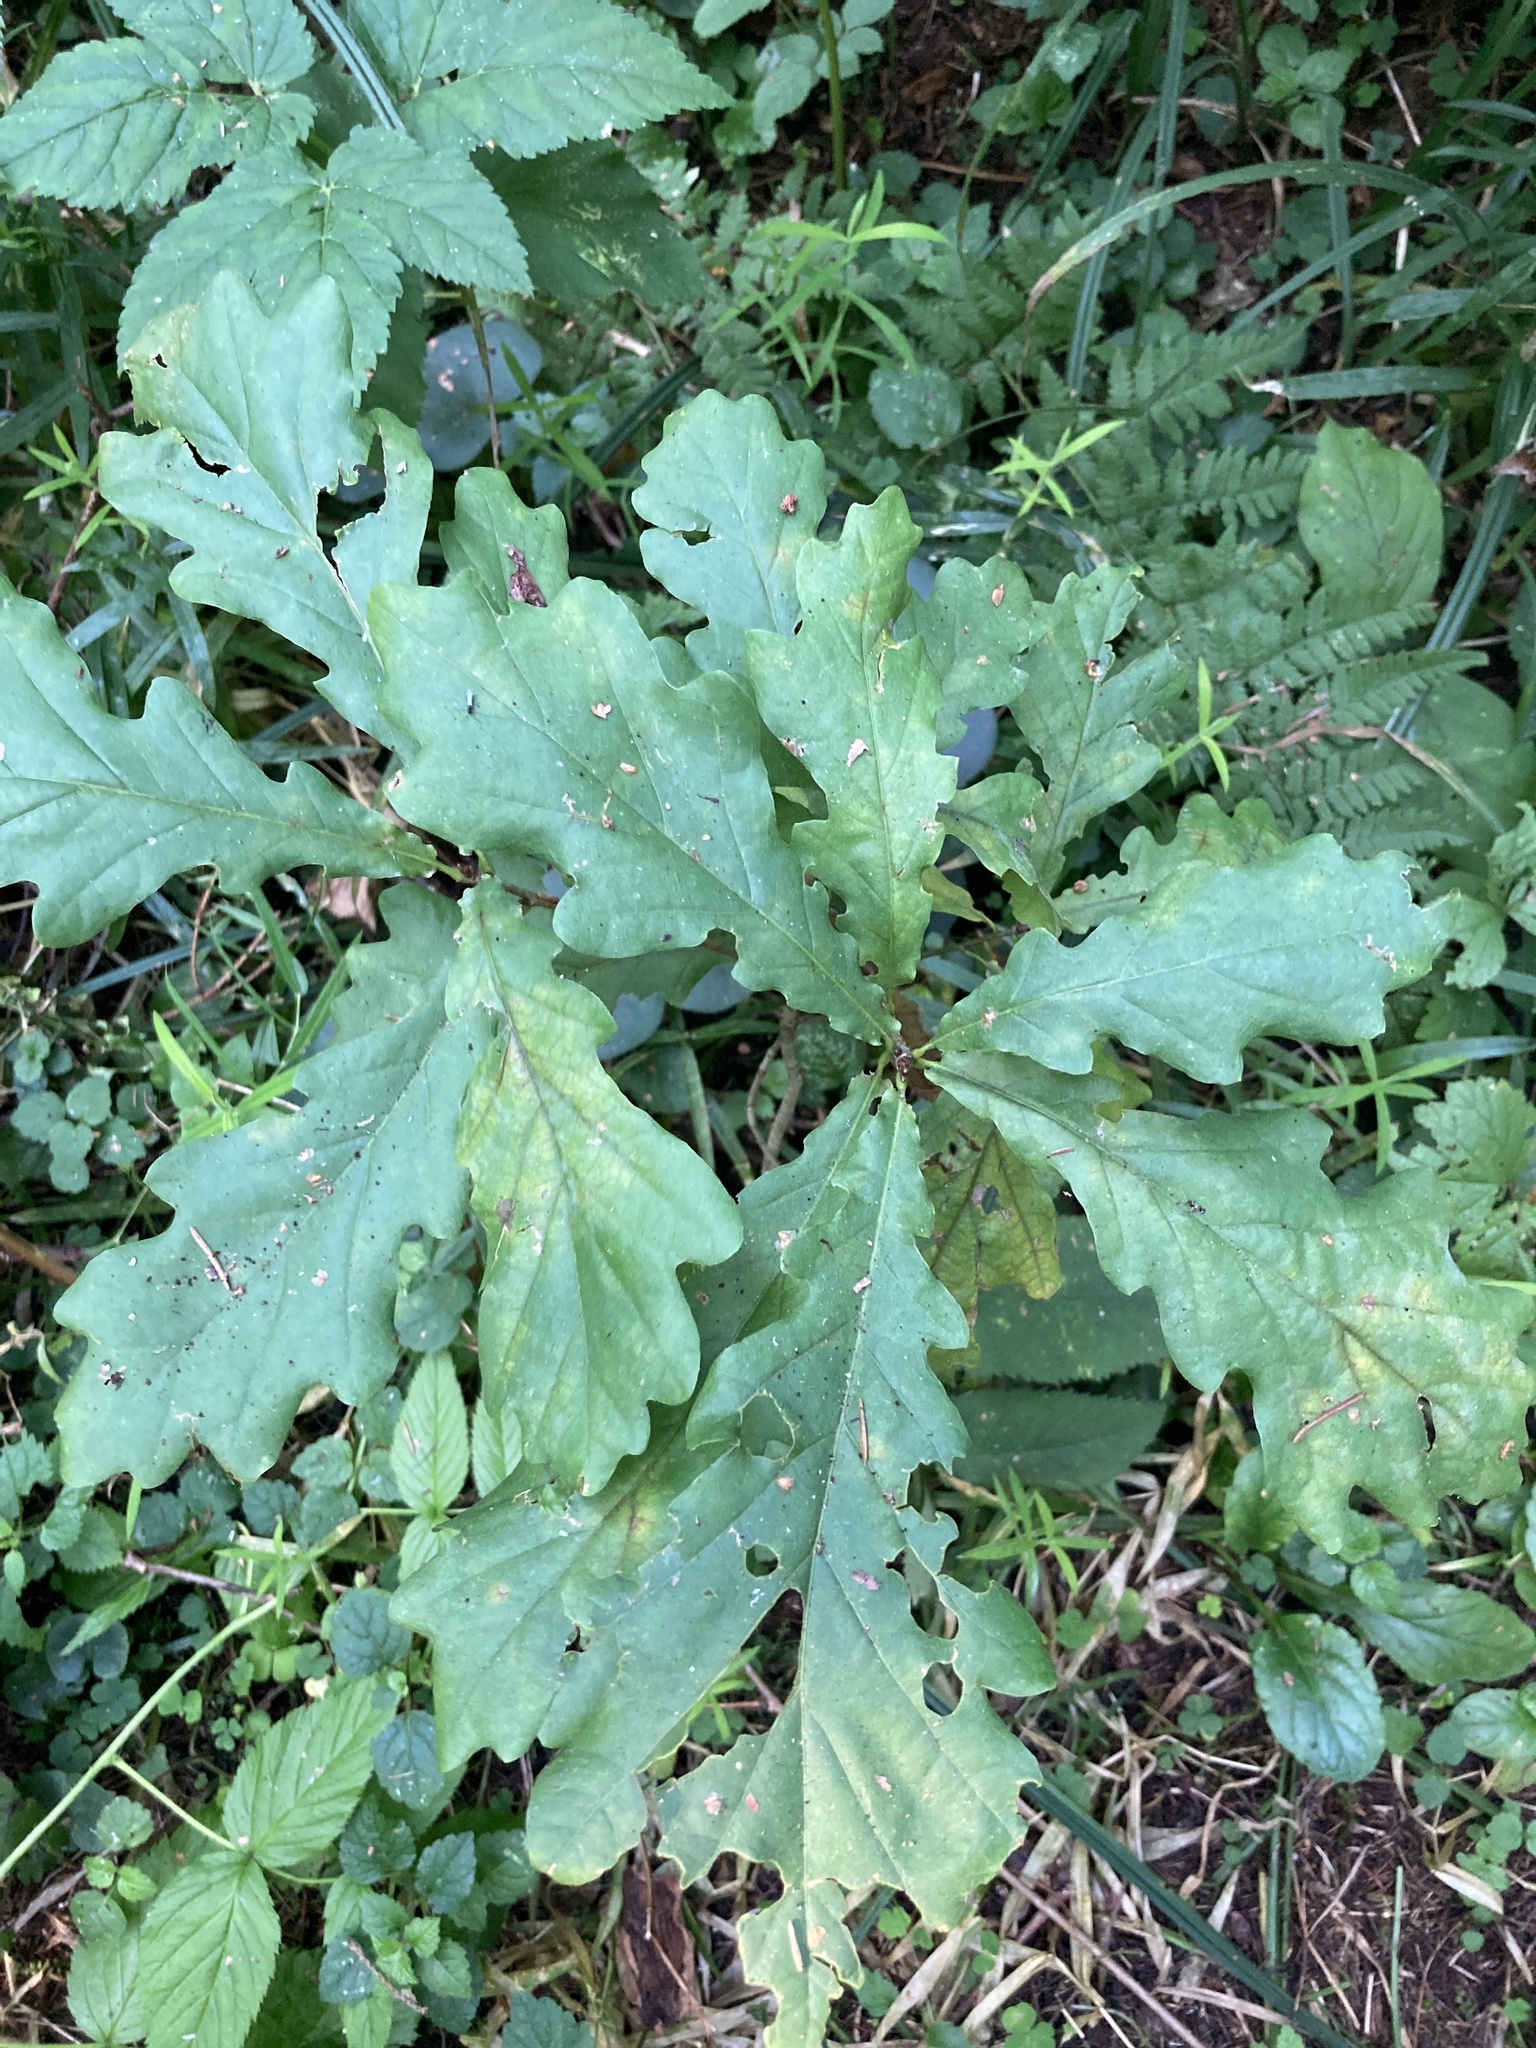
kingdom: Plantae
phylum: Tracheophyta
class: Magnoliopsida
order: Fagales
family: Fagaceae
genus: Quercus
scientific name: Quercus robur
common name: Pedunculate oak
